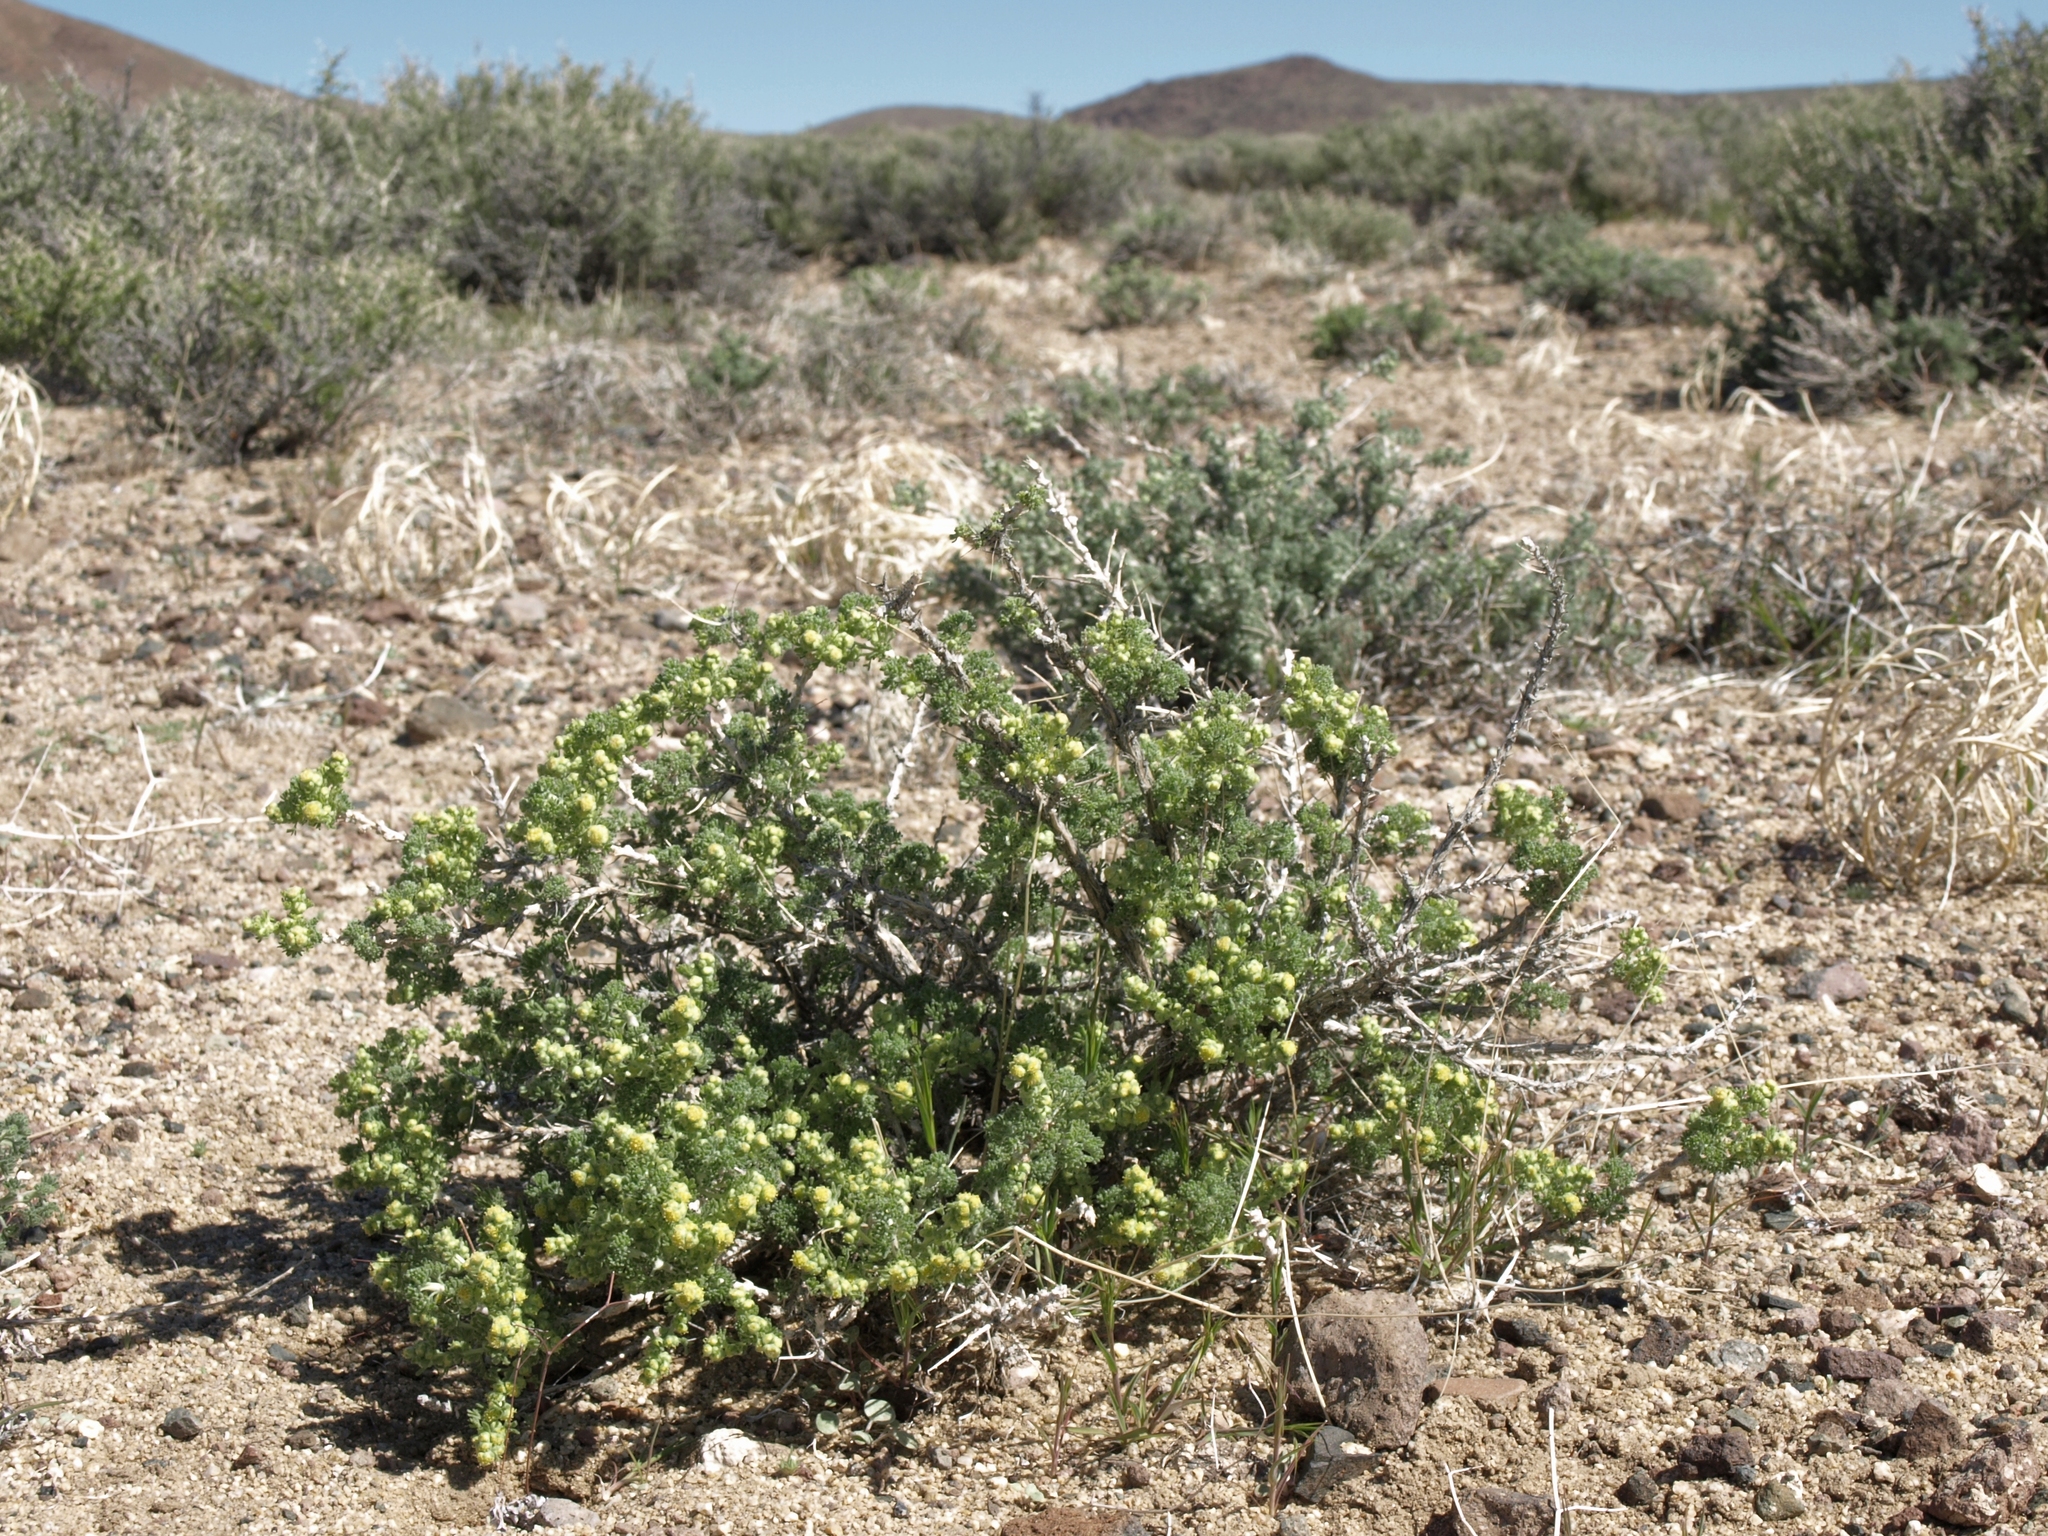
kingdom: Plantae
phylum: Tracheophyta
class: Magnoliopsida
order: Asterales
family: Asteraceae
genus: Artemisia
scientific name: Artemisia spinescens
